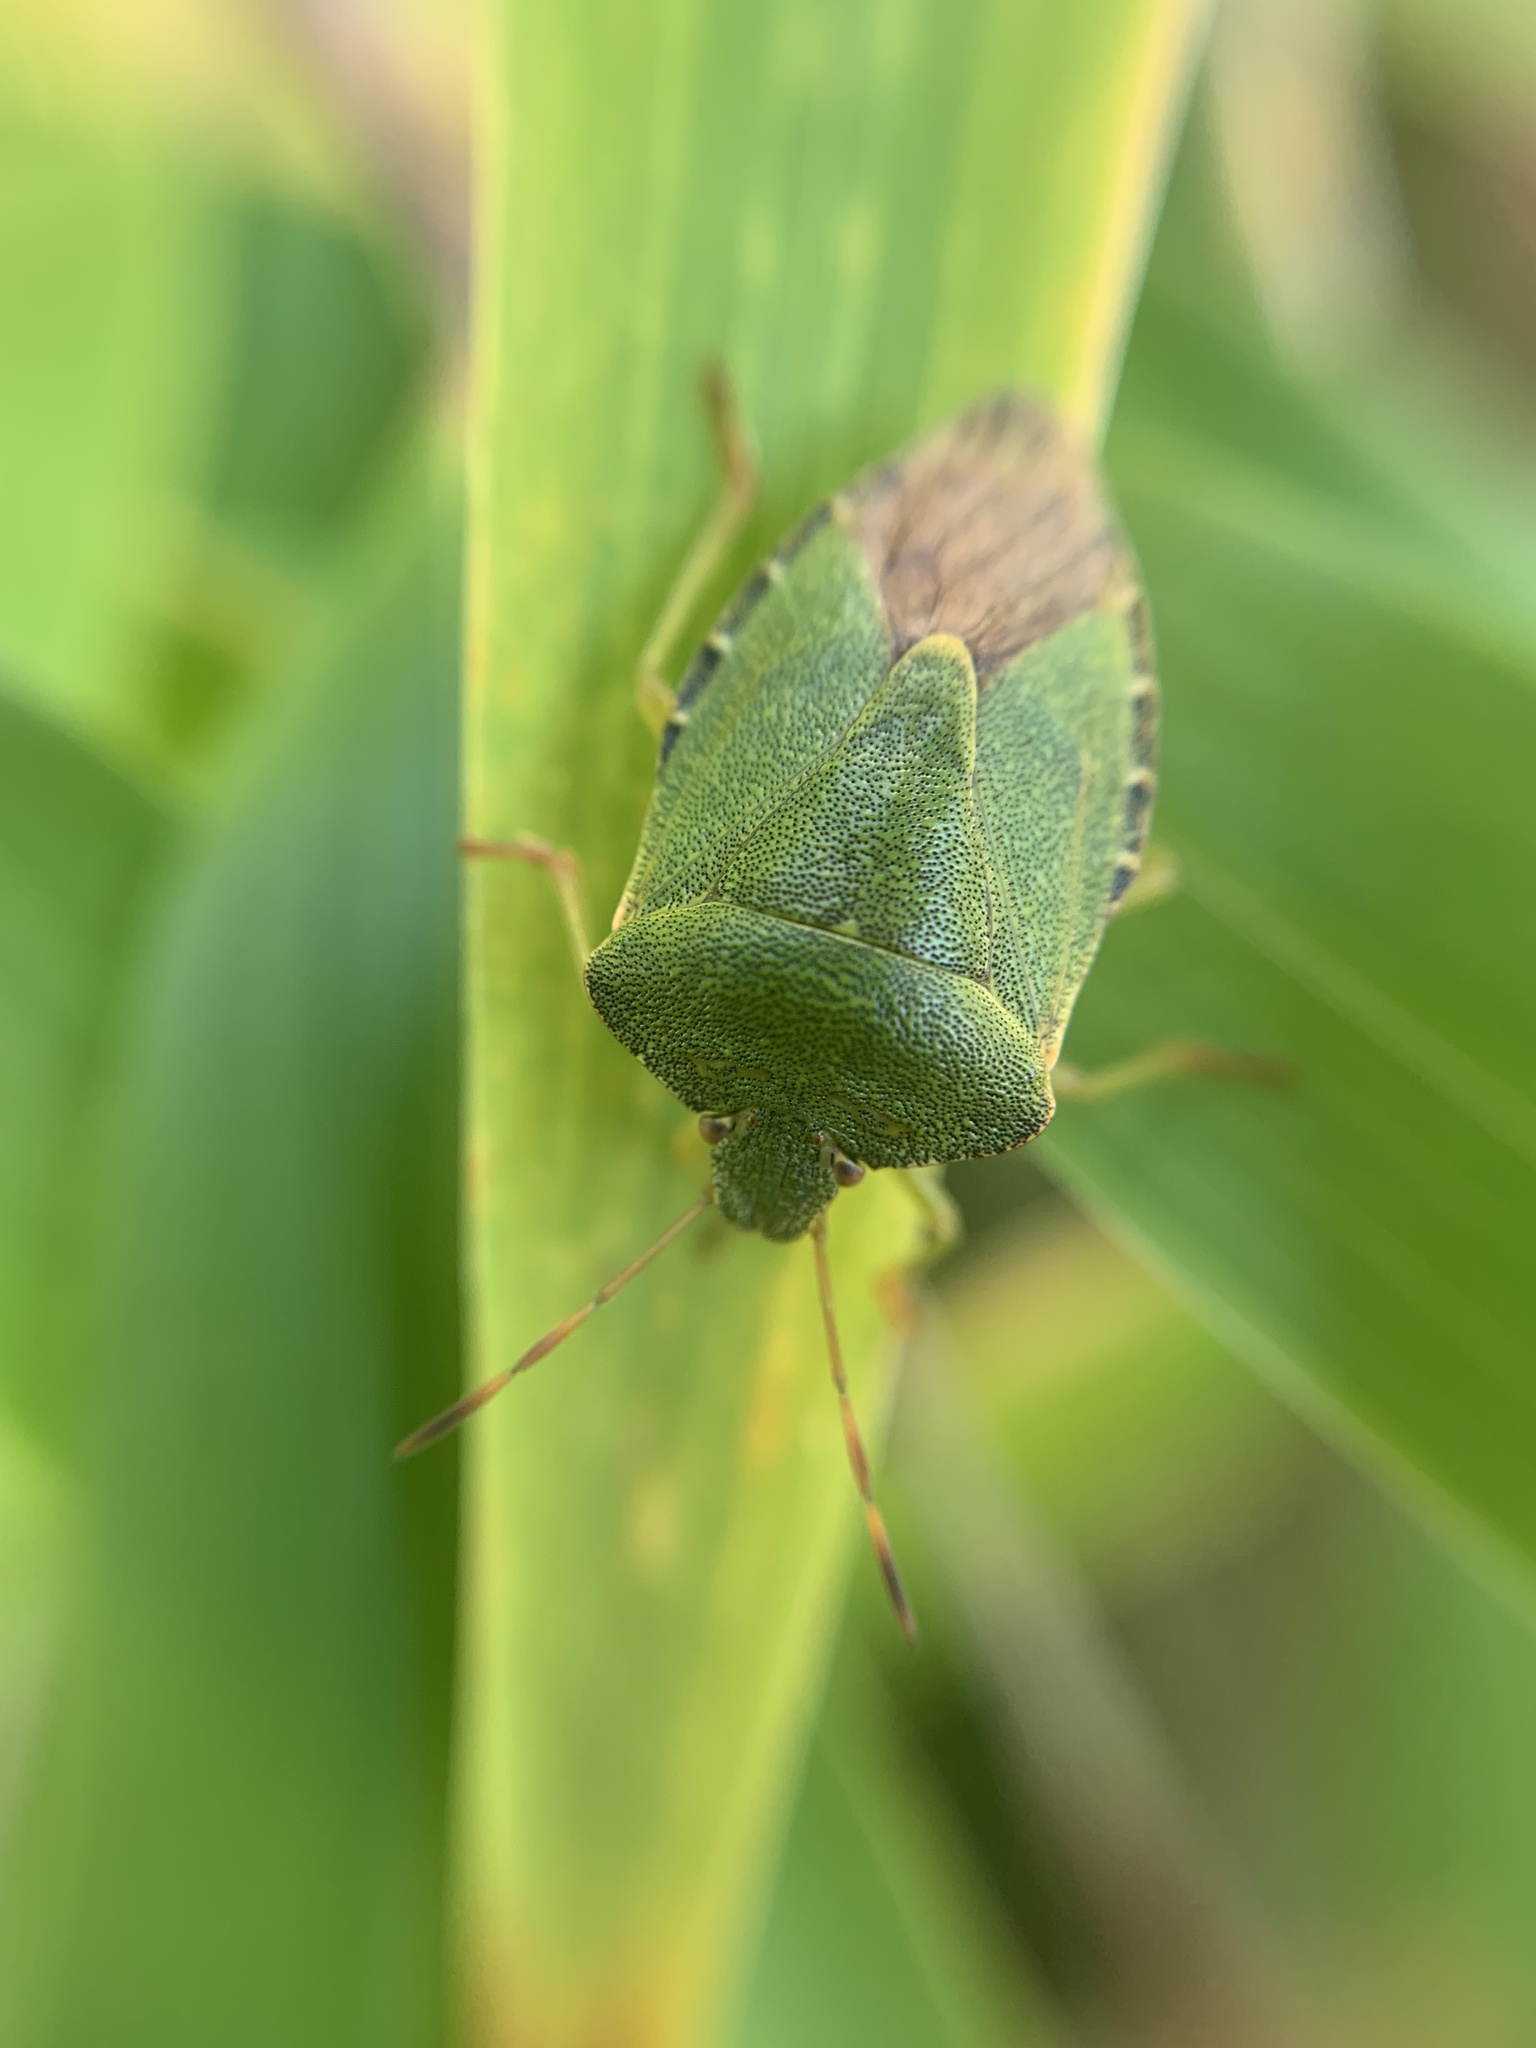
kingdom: Animalia
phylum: Arthropoda
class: Insecta
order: Hemiptera
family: Pentatomidae
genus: Palomena
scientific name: Palomena prasina
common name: Green shieldbug
